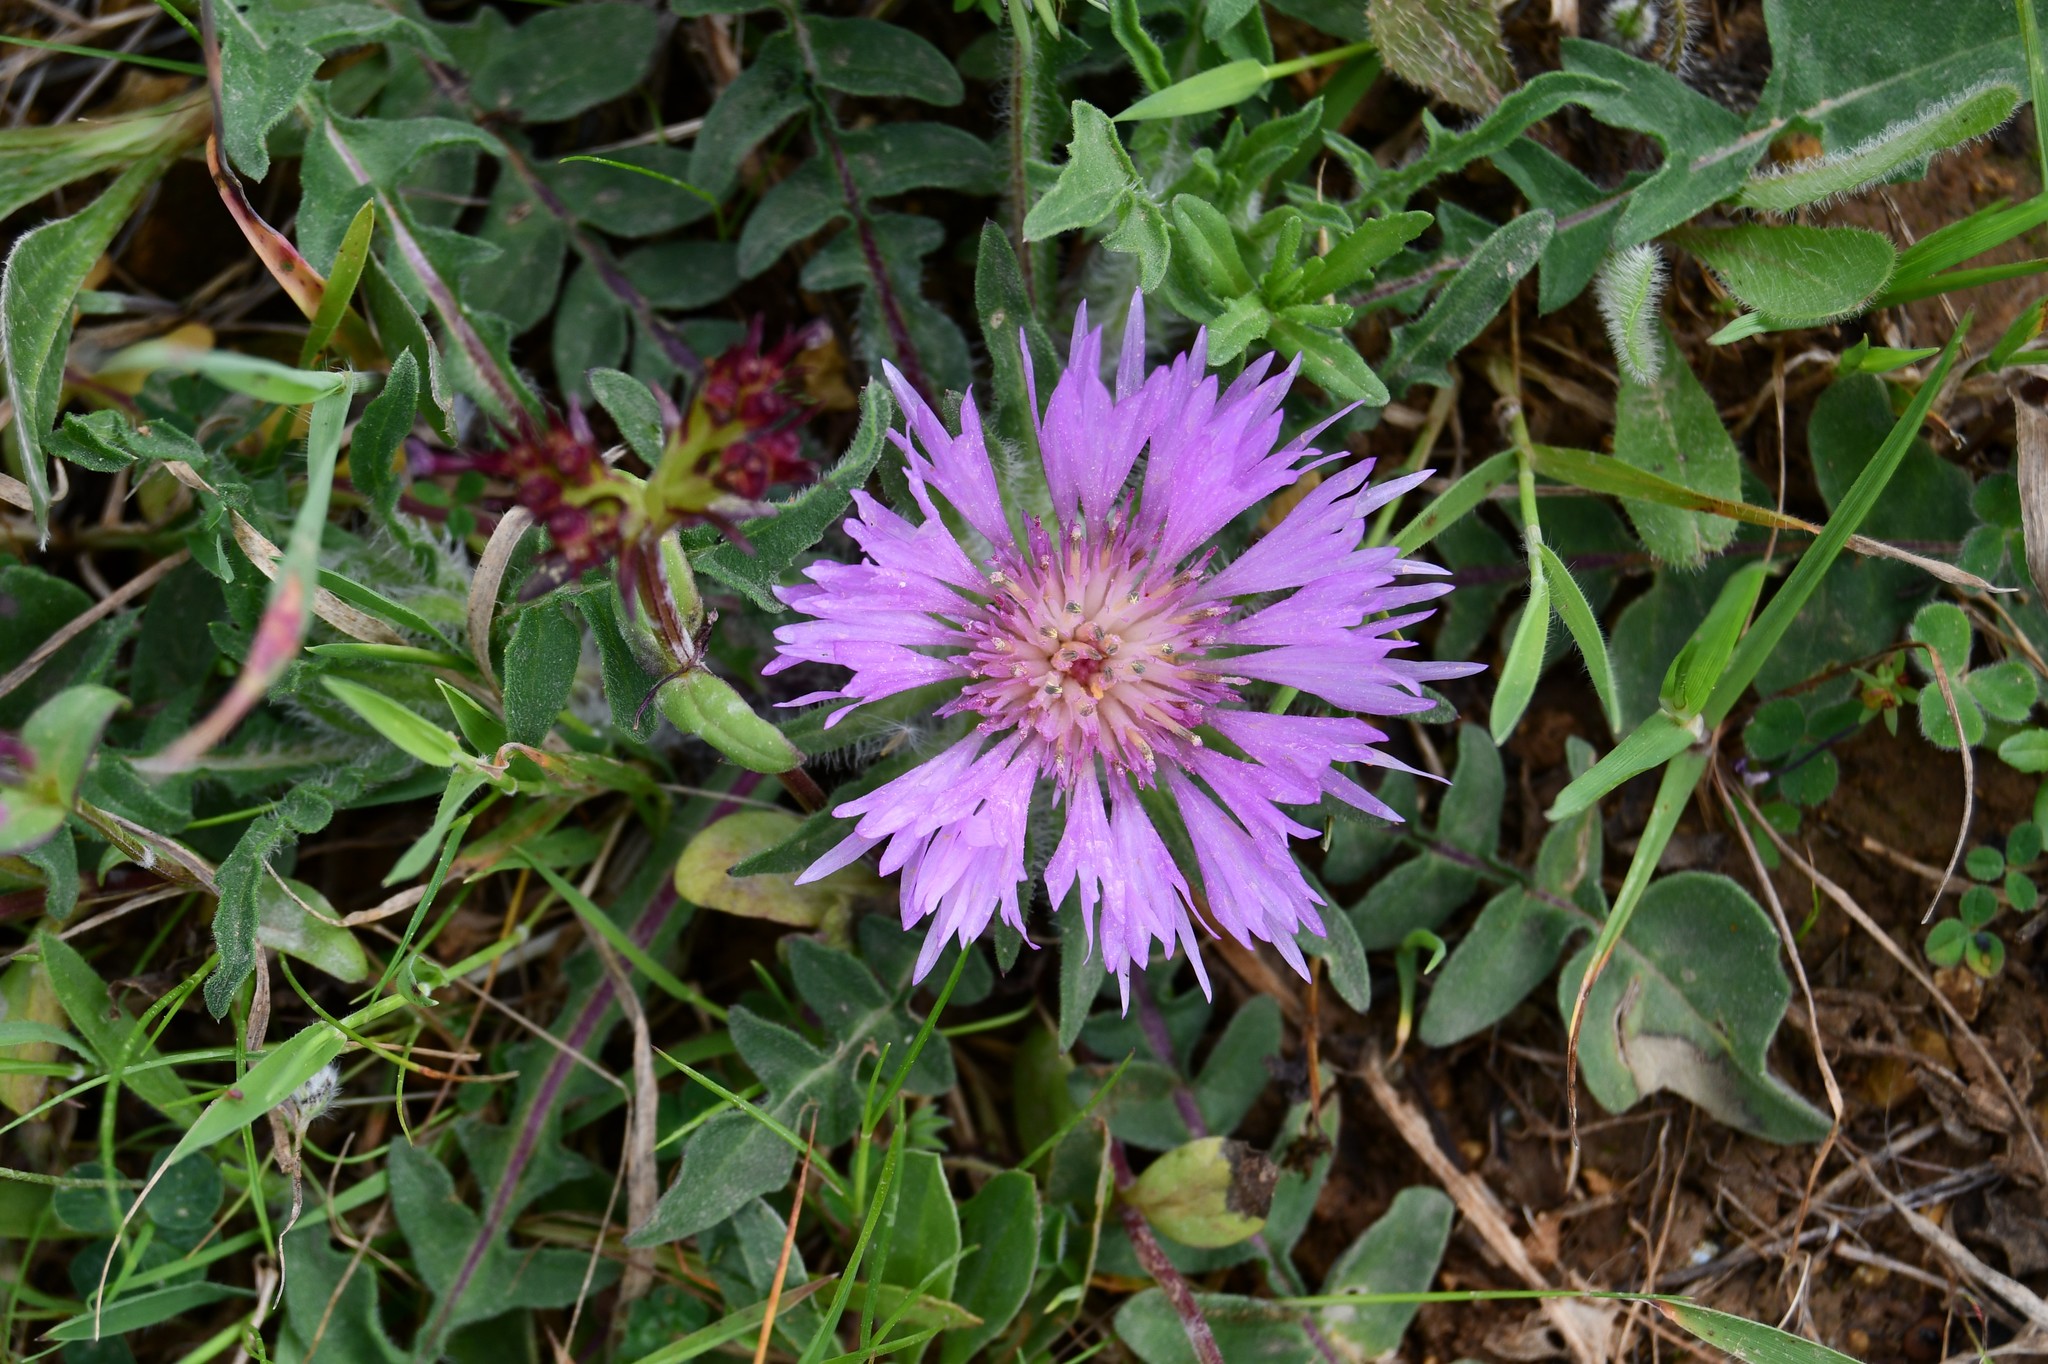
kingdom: Plantae
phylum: Tracheophyta
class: Magnoliopsida
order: Asterales
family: Asteraceae
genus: Centaurea
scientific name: Centaurea pullata
